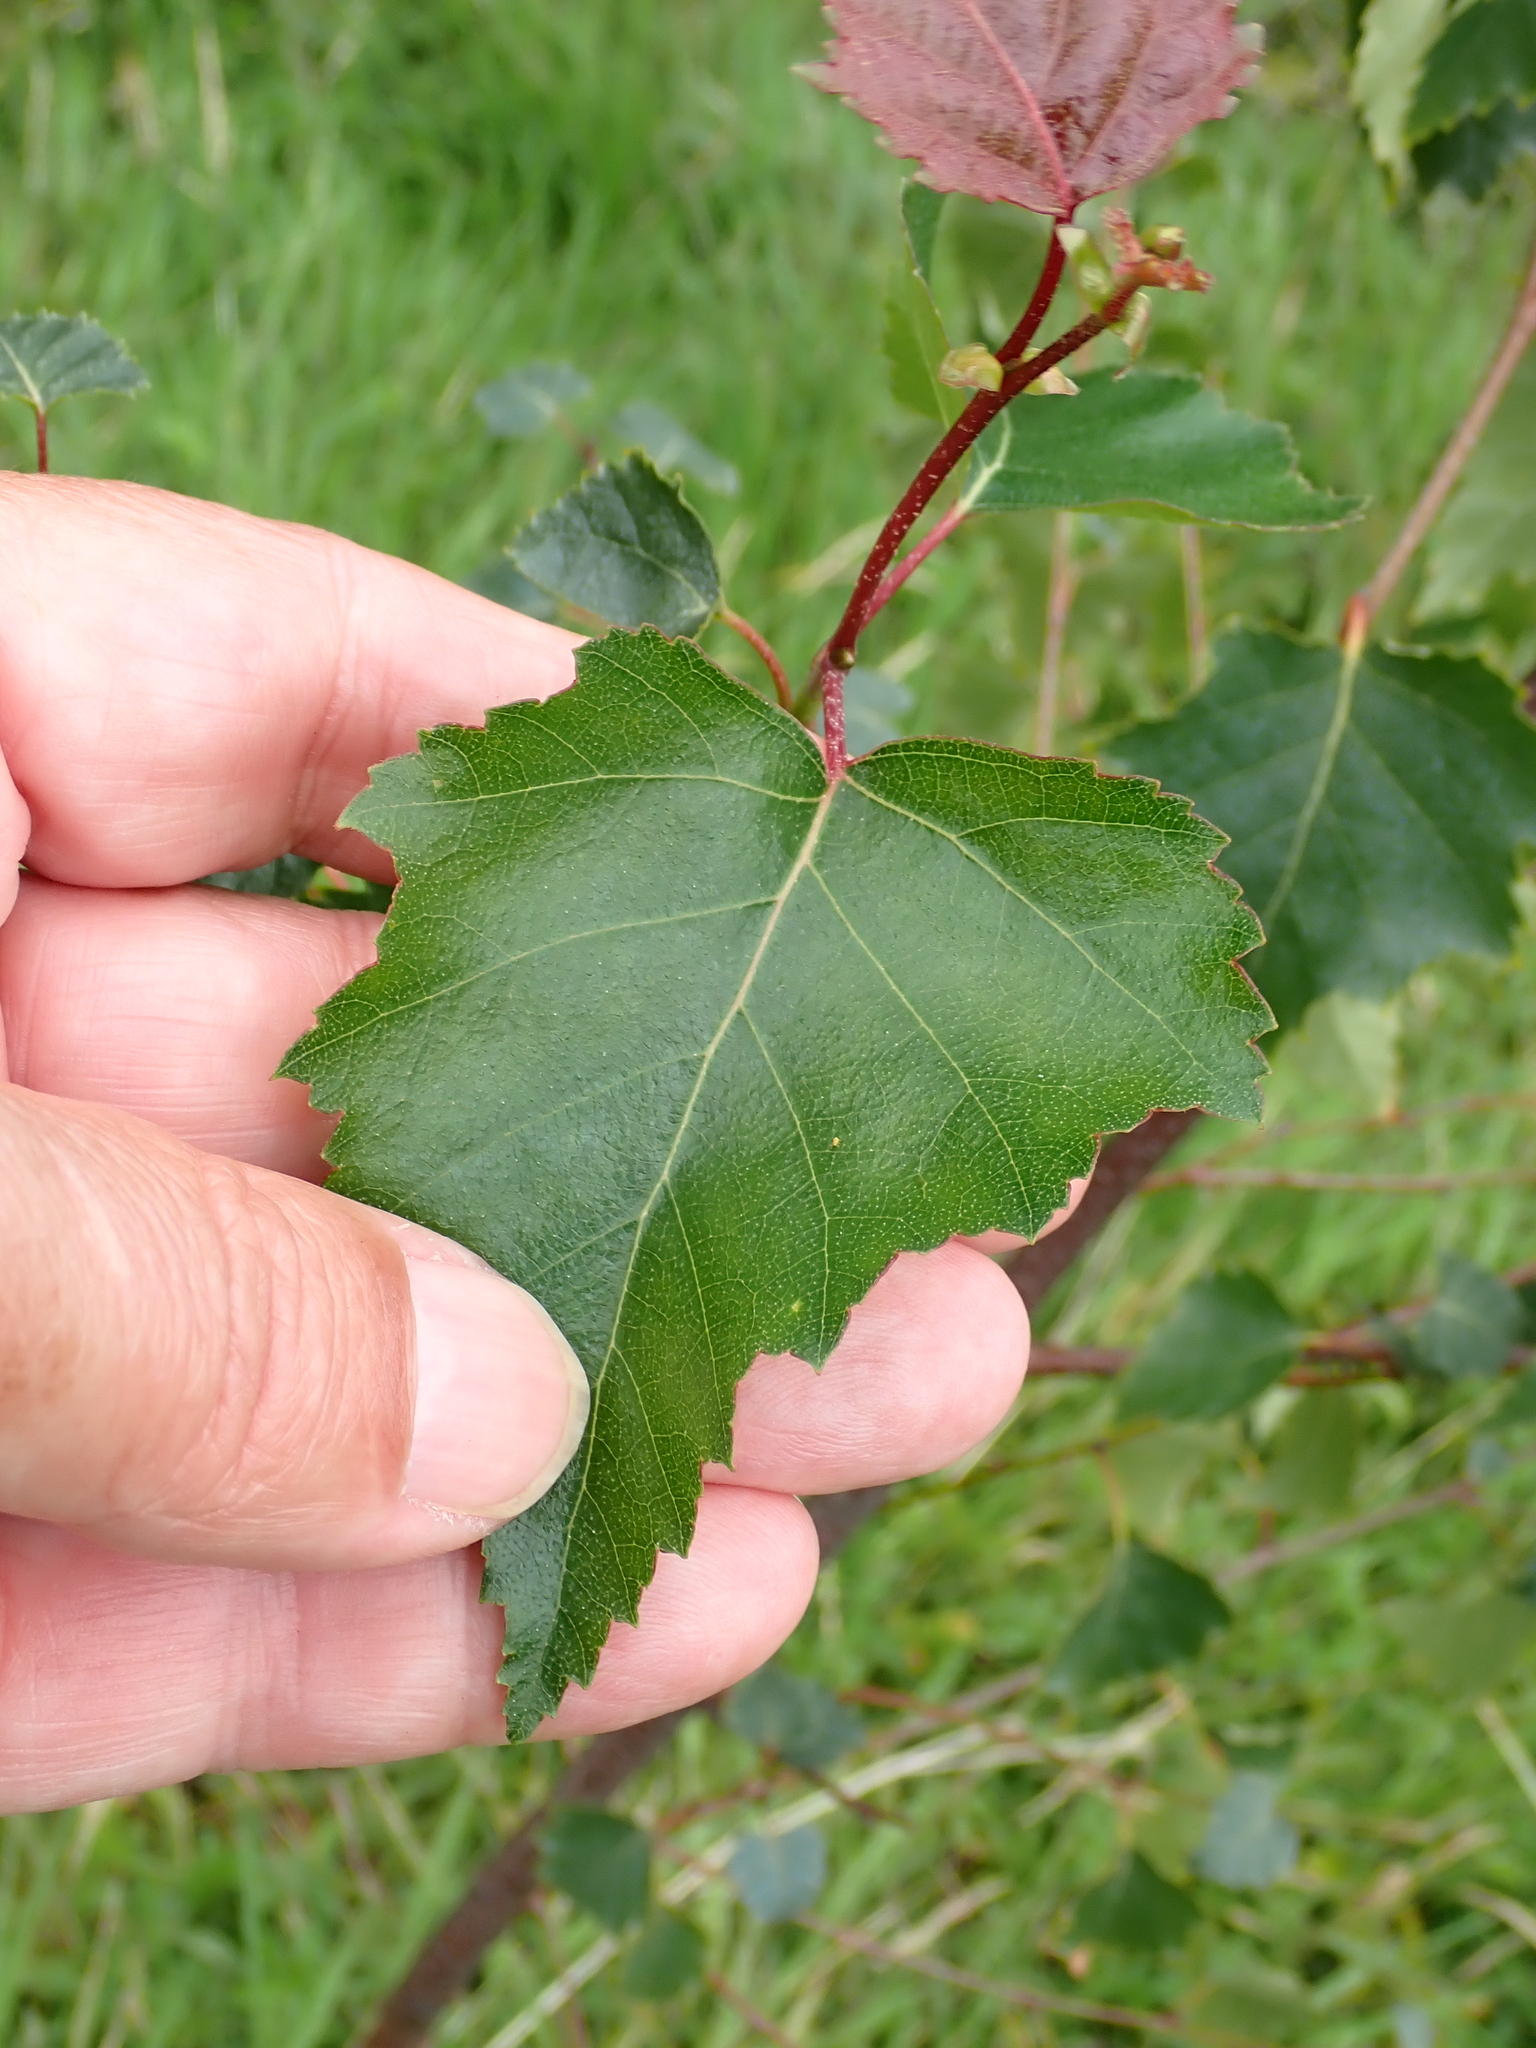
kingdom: Plantae
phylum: Tracheophyta
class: Magnoliopsida
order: Fagales
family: Betulaceae
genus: Betula
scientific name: Betula pendula
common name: Silver birch
